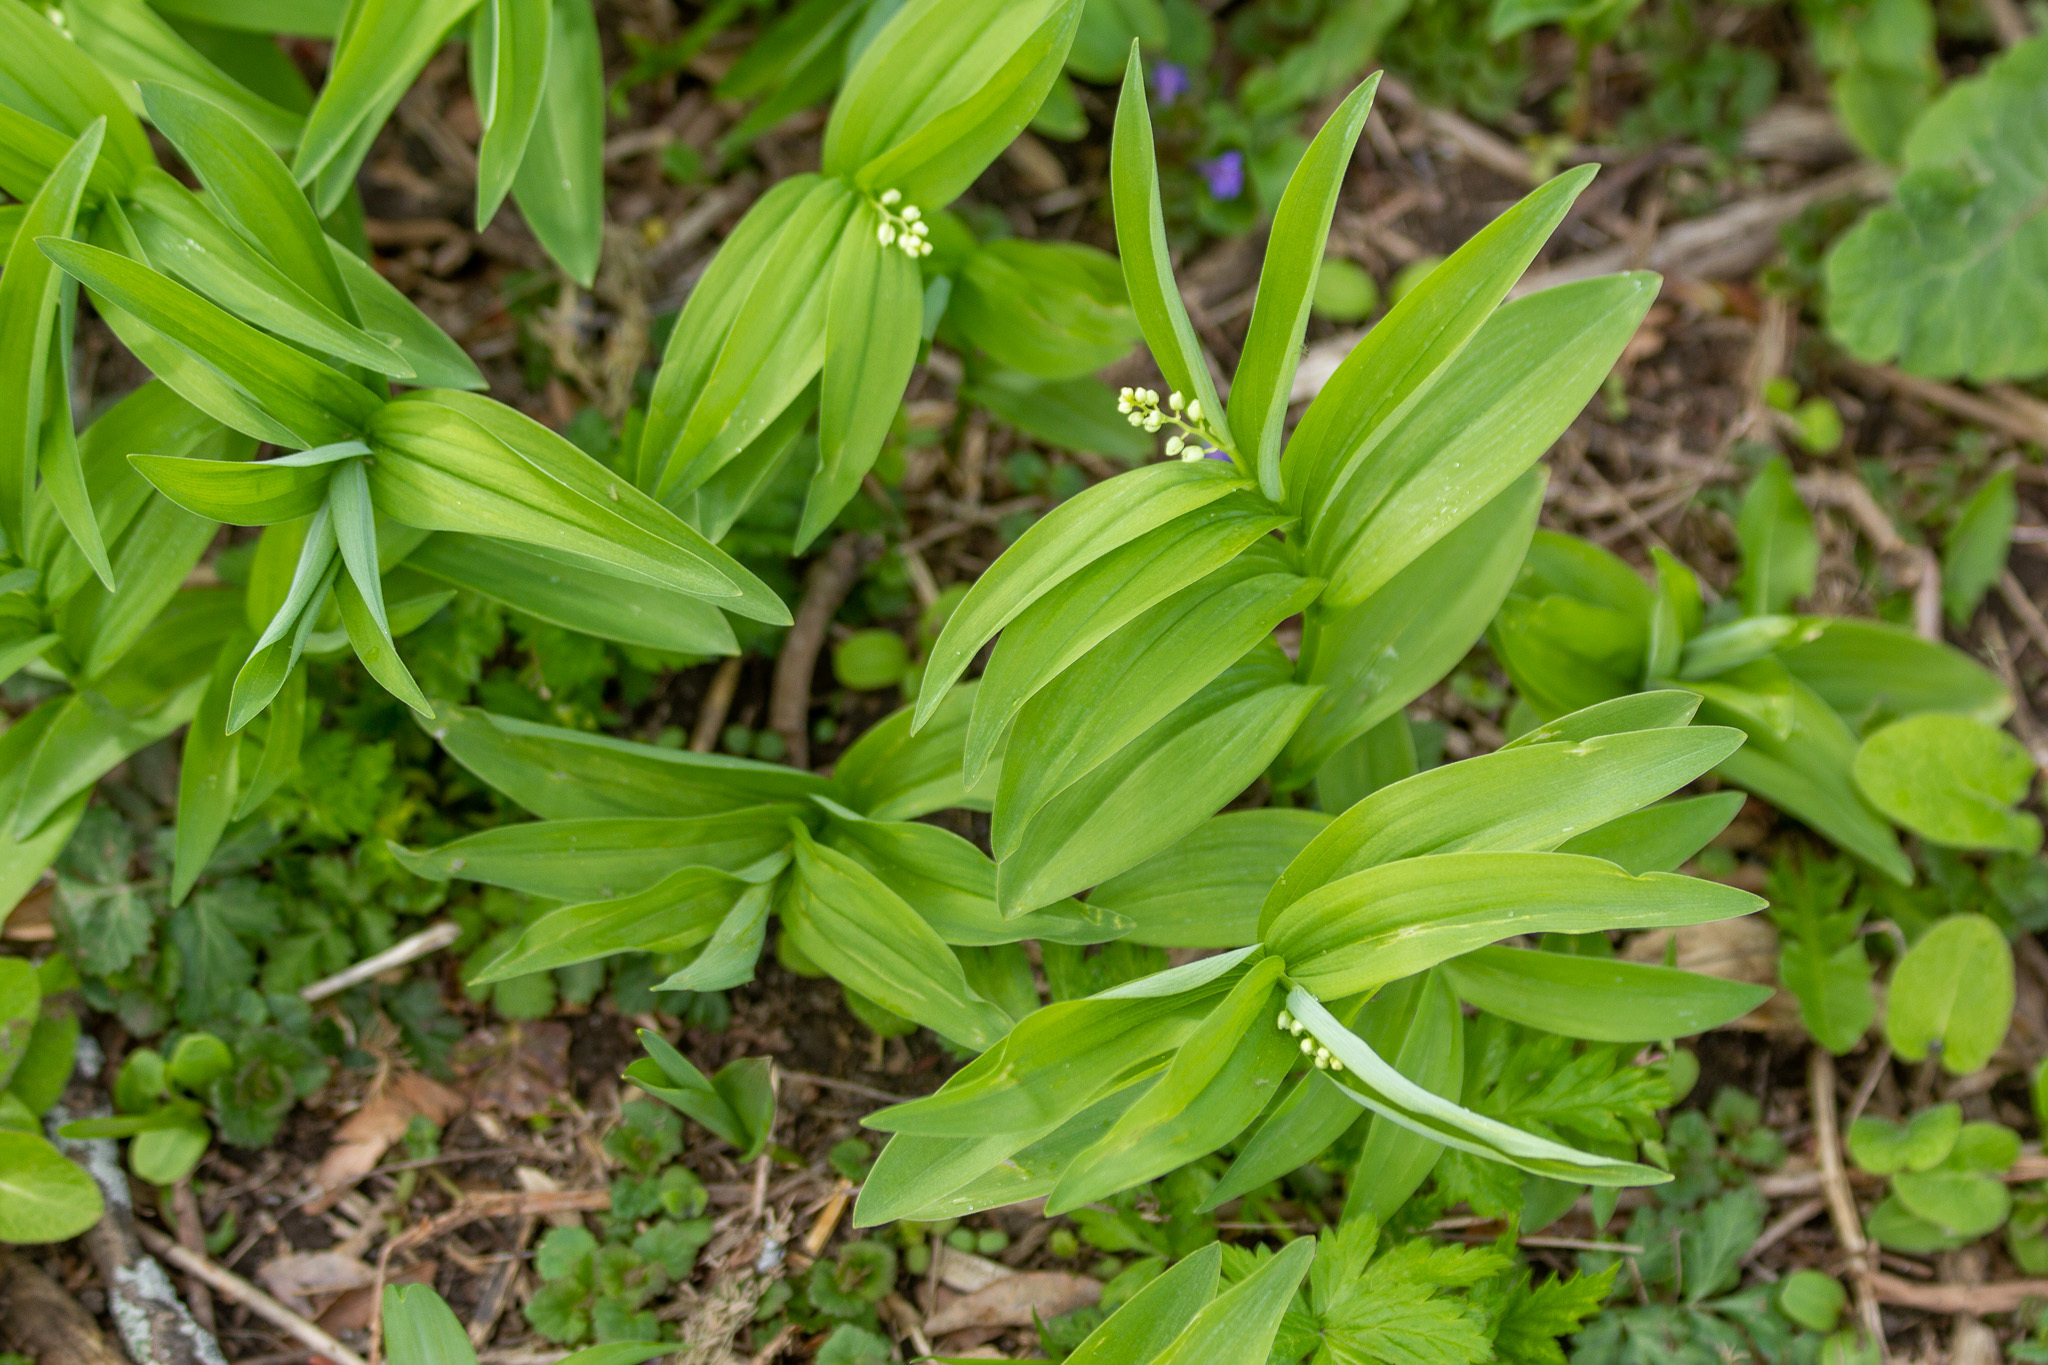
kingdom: Plantae
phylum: Tracheophyta
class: Liliopsida
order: Asparagales
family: Asparagaceae
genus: Maianthemum
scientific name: Maianthemum stellatum
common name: Little false solomon's seal
